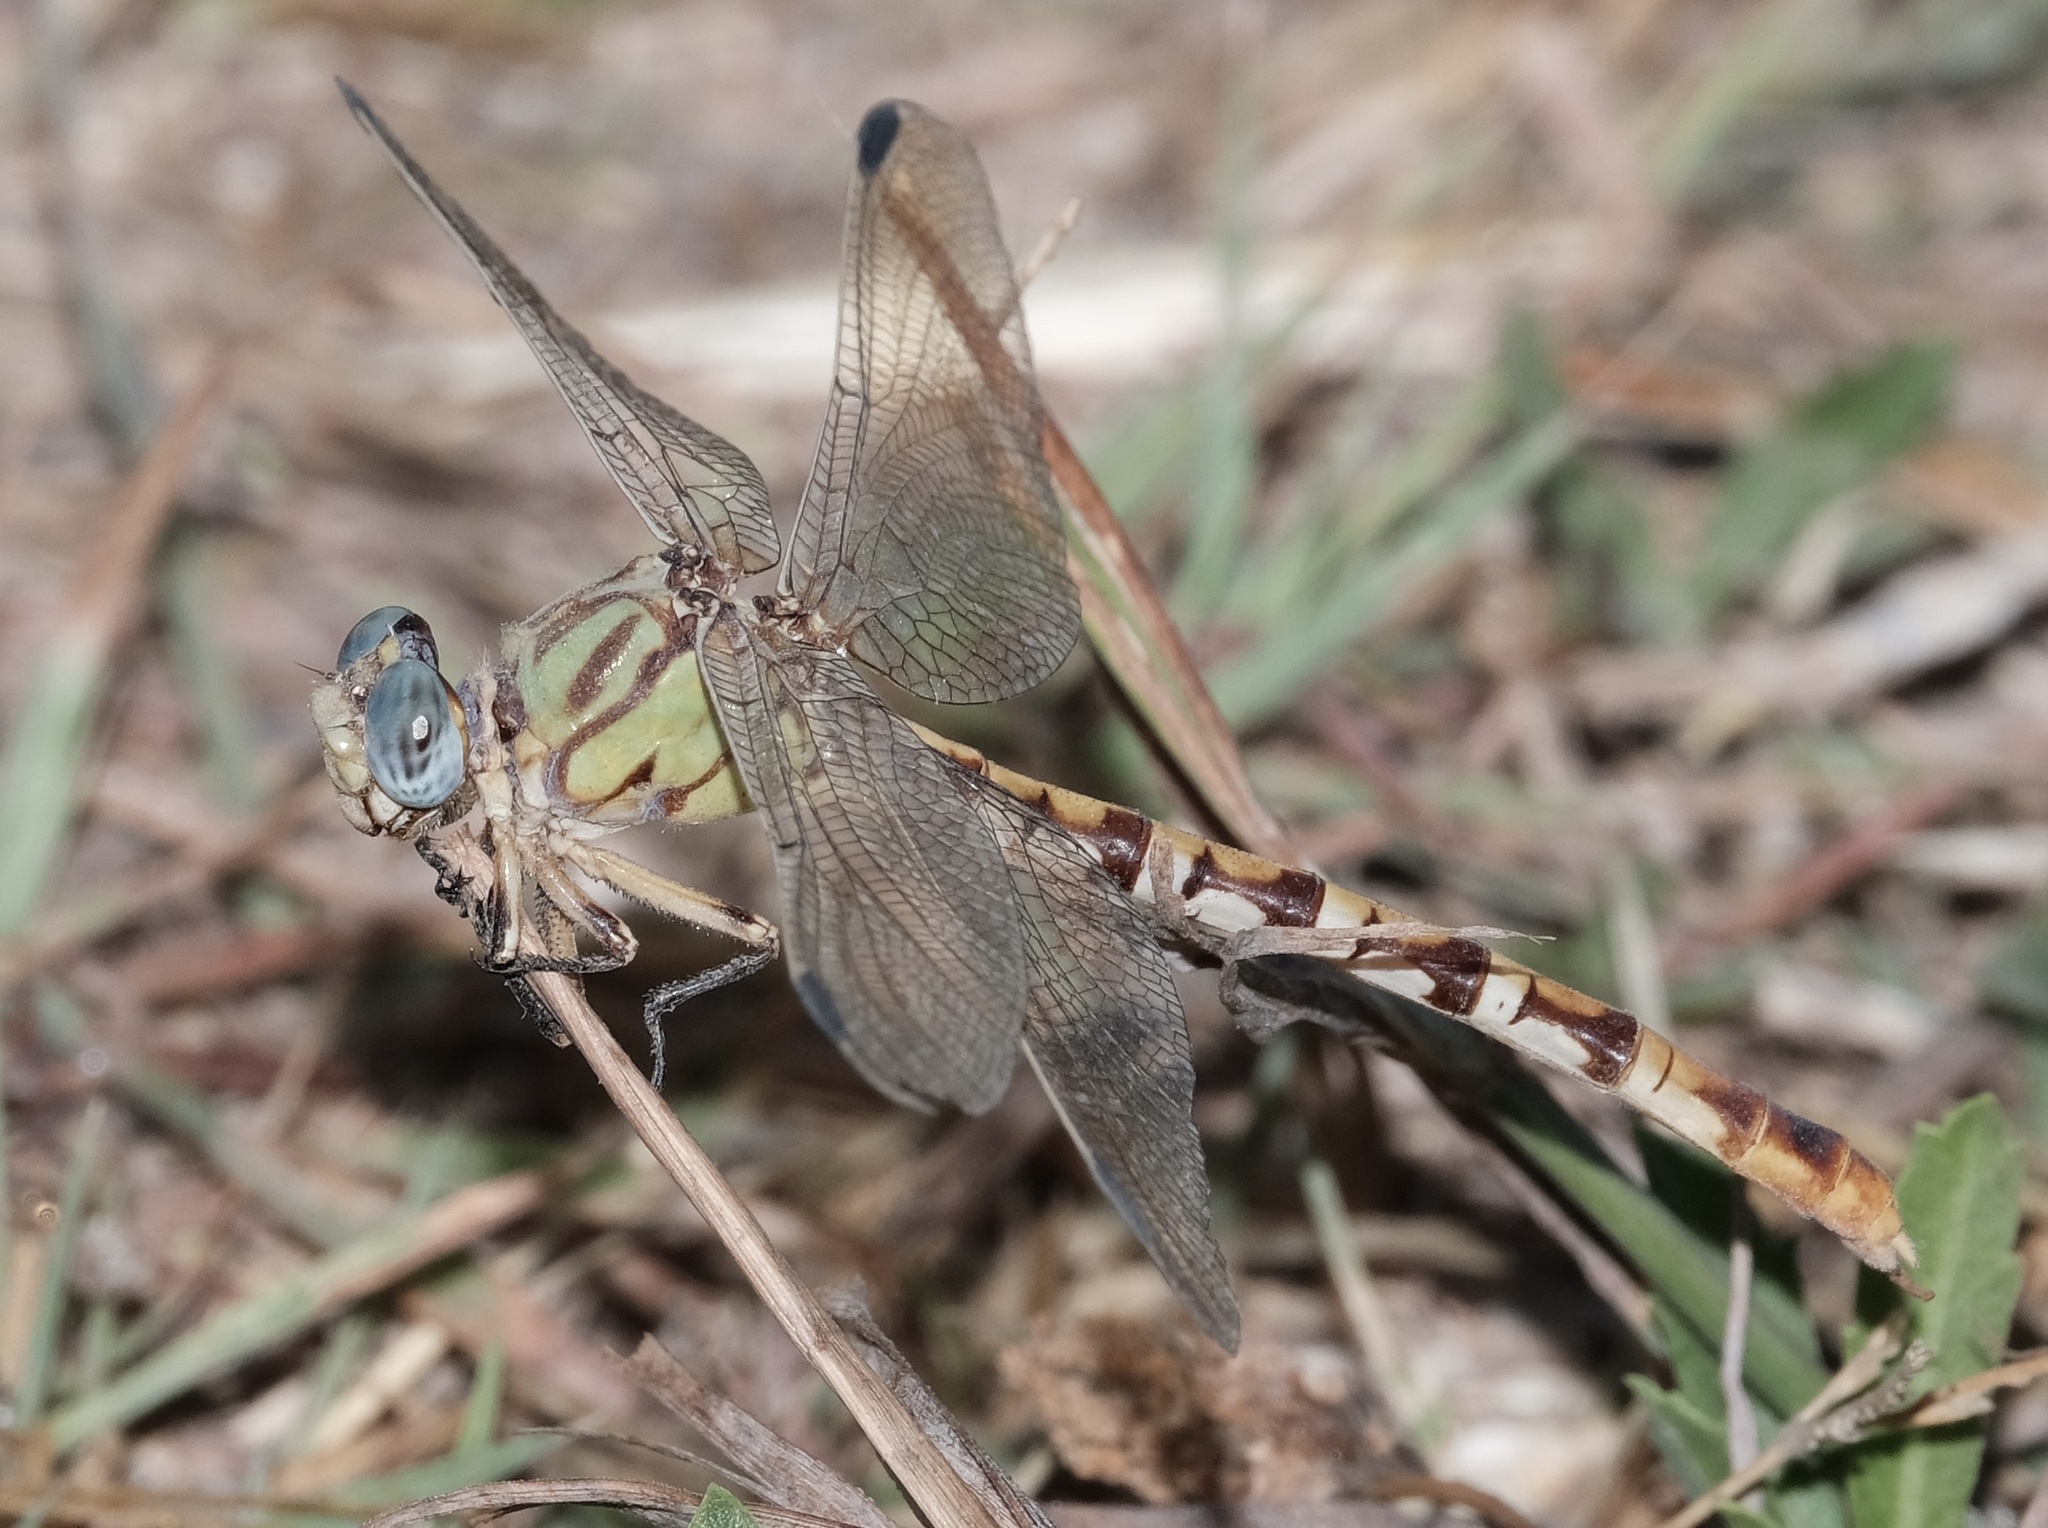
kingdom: Animalia
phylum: Arthropoda
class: Insecta
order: Odonata
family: Gomphidae
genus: Erpetogomphus
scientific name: Erpetogomphus designatus
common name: Eastern ringtail
